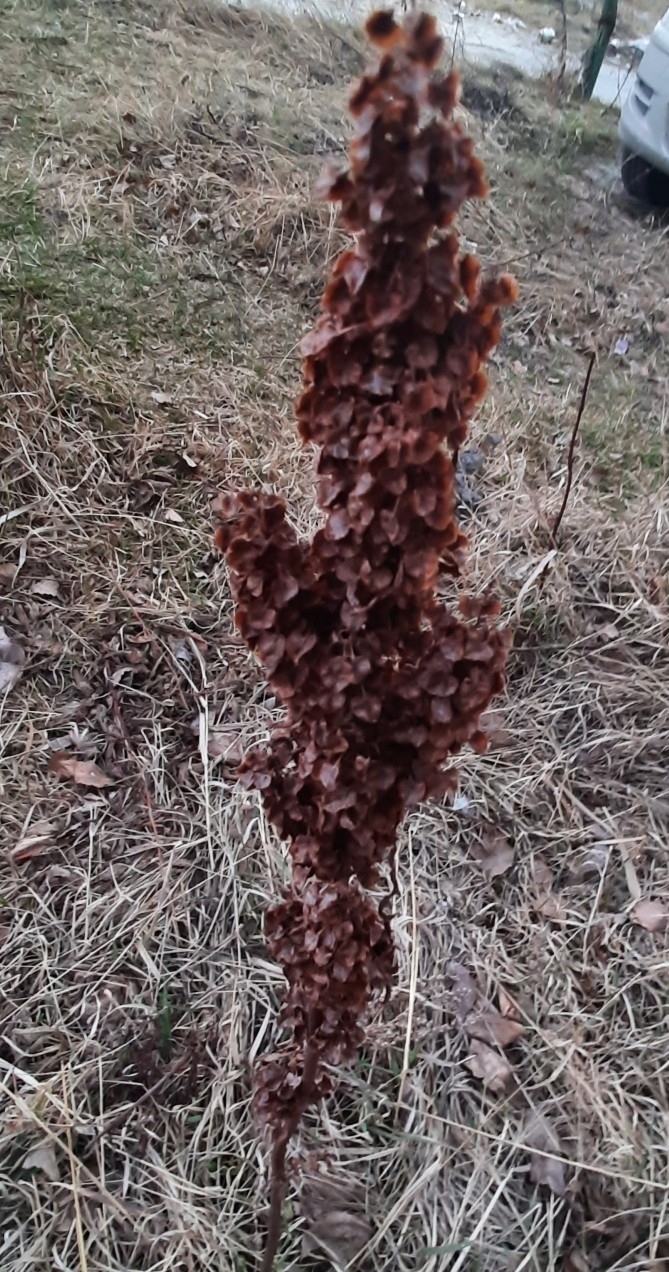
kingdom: Plantae
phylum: Tracheophyta
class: Magnoliopsida
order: Caryophyllales
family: Polygonaceae
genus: Rumex
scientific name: Rumex pseudonatronatus
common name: Field dock
